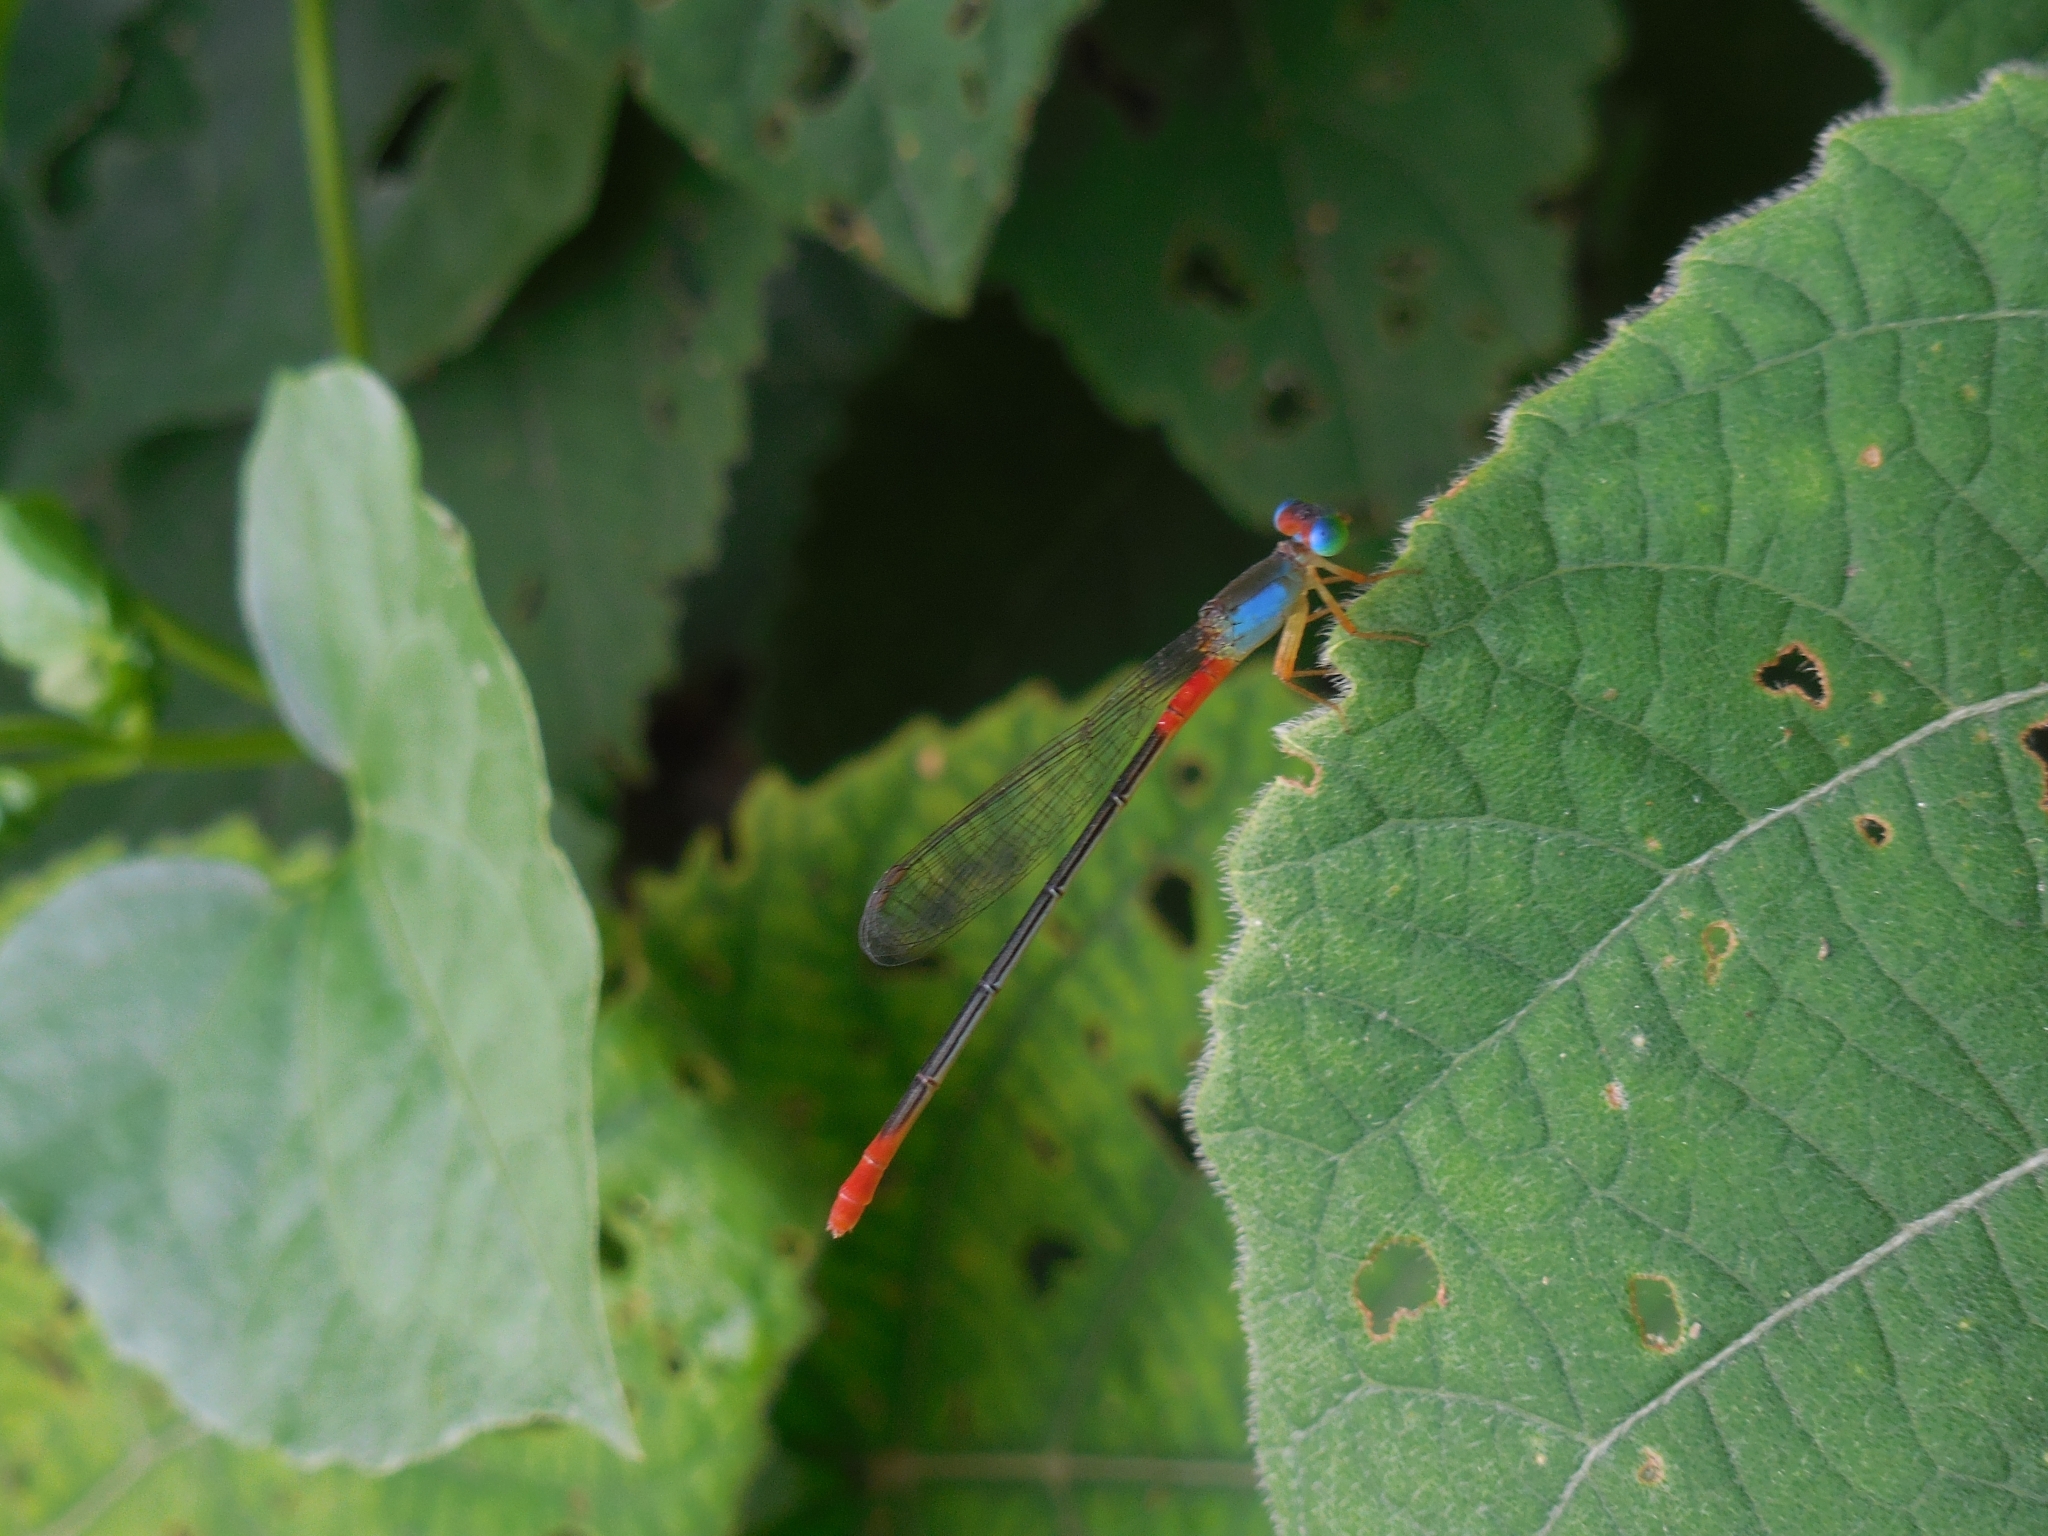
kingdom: Animalia
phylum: Arthropoda
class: Insecta
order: Odonata
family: Coenagrionidae
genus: Ceriagrion
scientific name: Ceriagrion cerinorubellum
